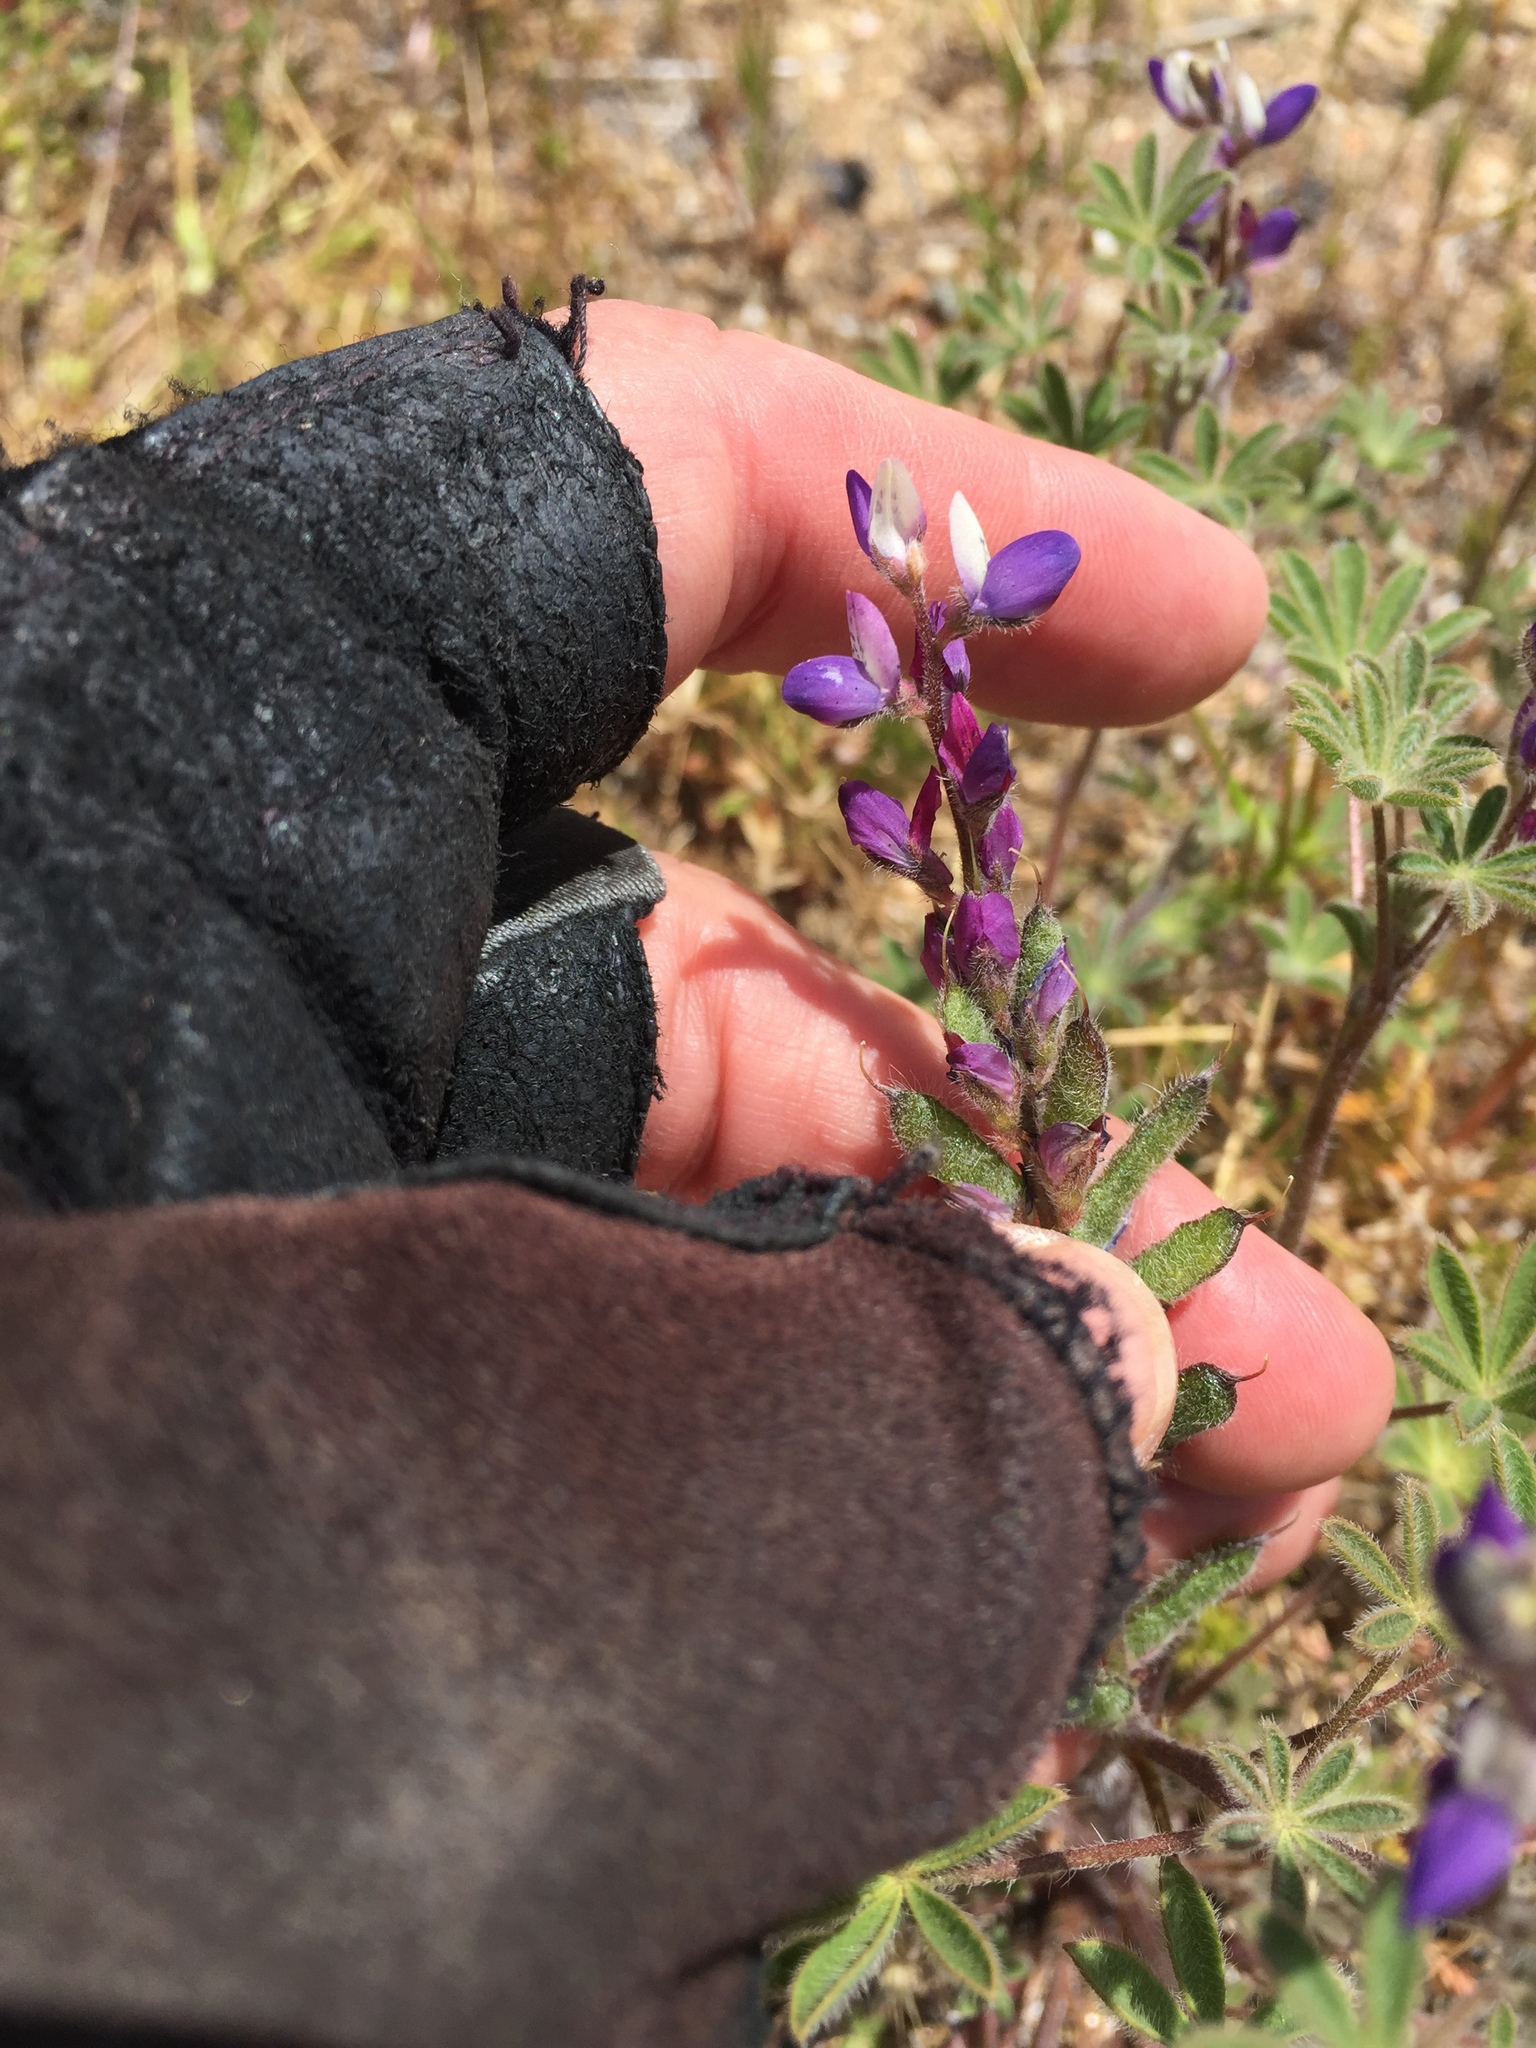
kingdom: Plantae
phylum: Tracheophyta
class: Magnoliopsida
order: Fabales
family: Fabaceae
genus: Lupinus
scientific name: Lupinus concinnus
